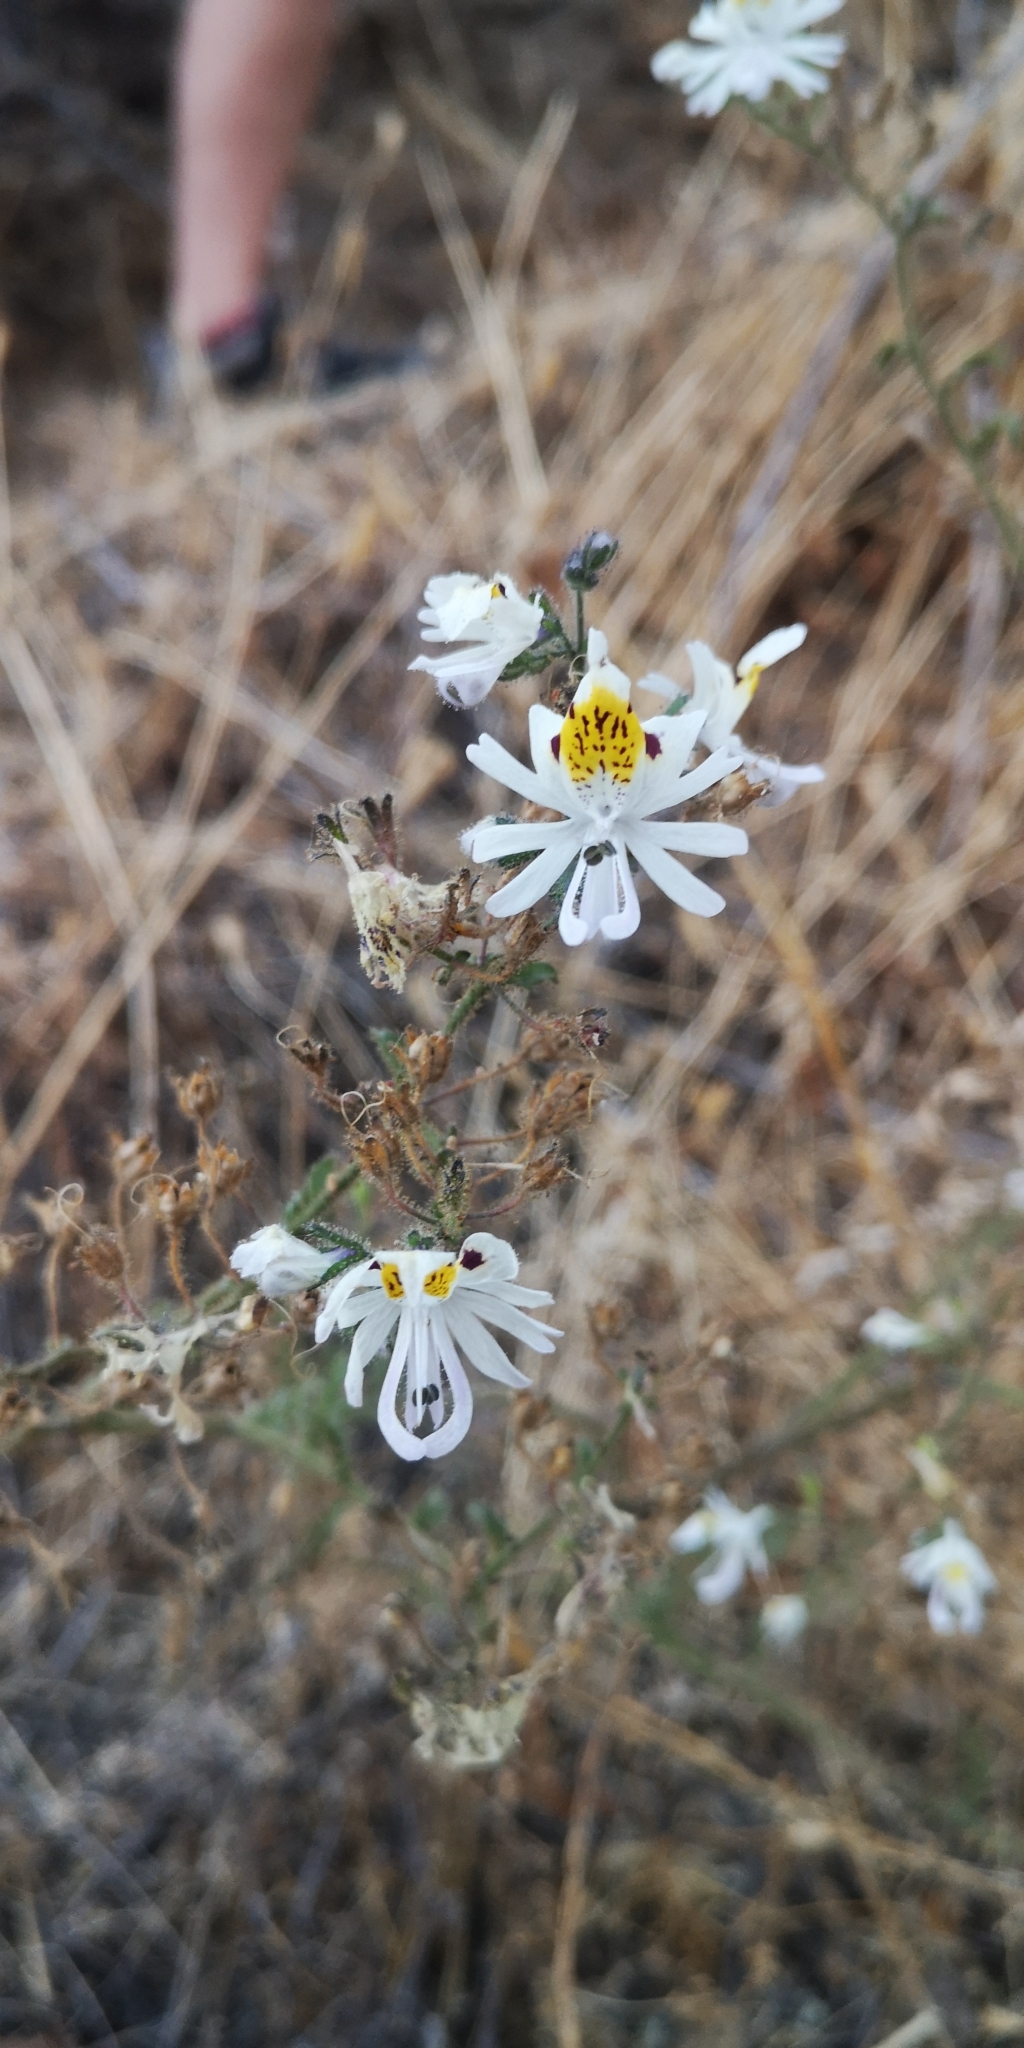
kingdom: Plantae
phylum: Tracheophyta
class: Magnoliopsida
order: Solanales
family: Solanaceae
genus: Schizanthus
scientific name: Schizanthus porrigens
